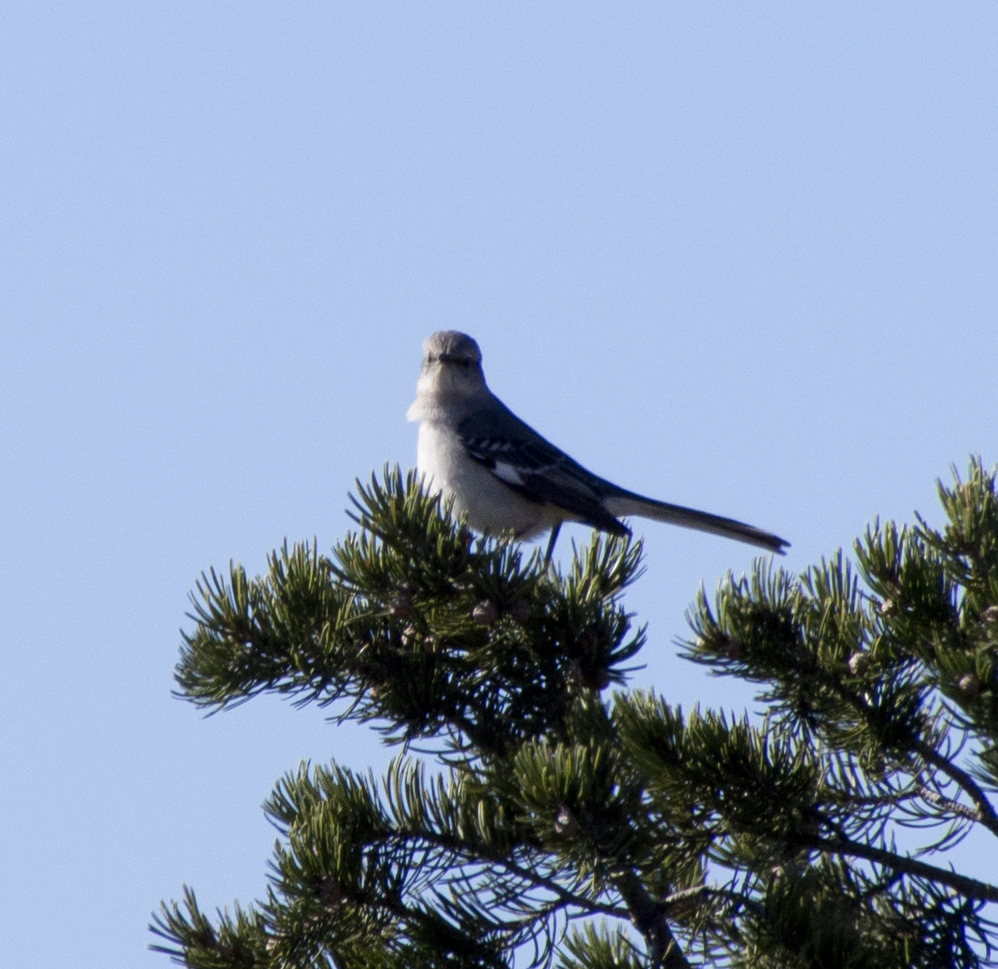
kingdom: Animalia
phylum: Chordata
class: Aves
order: Passeriformes
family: Mimidae
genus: Mimus
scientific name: Mimus polyglottos
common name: Northern mockingbird
